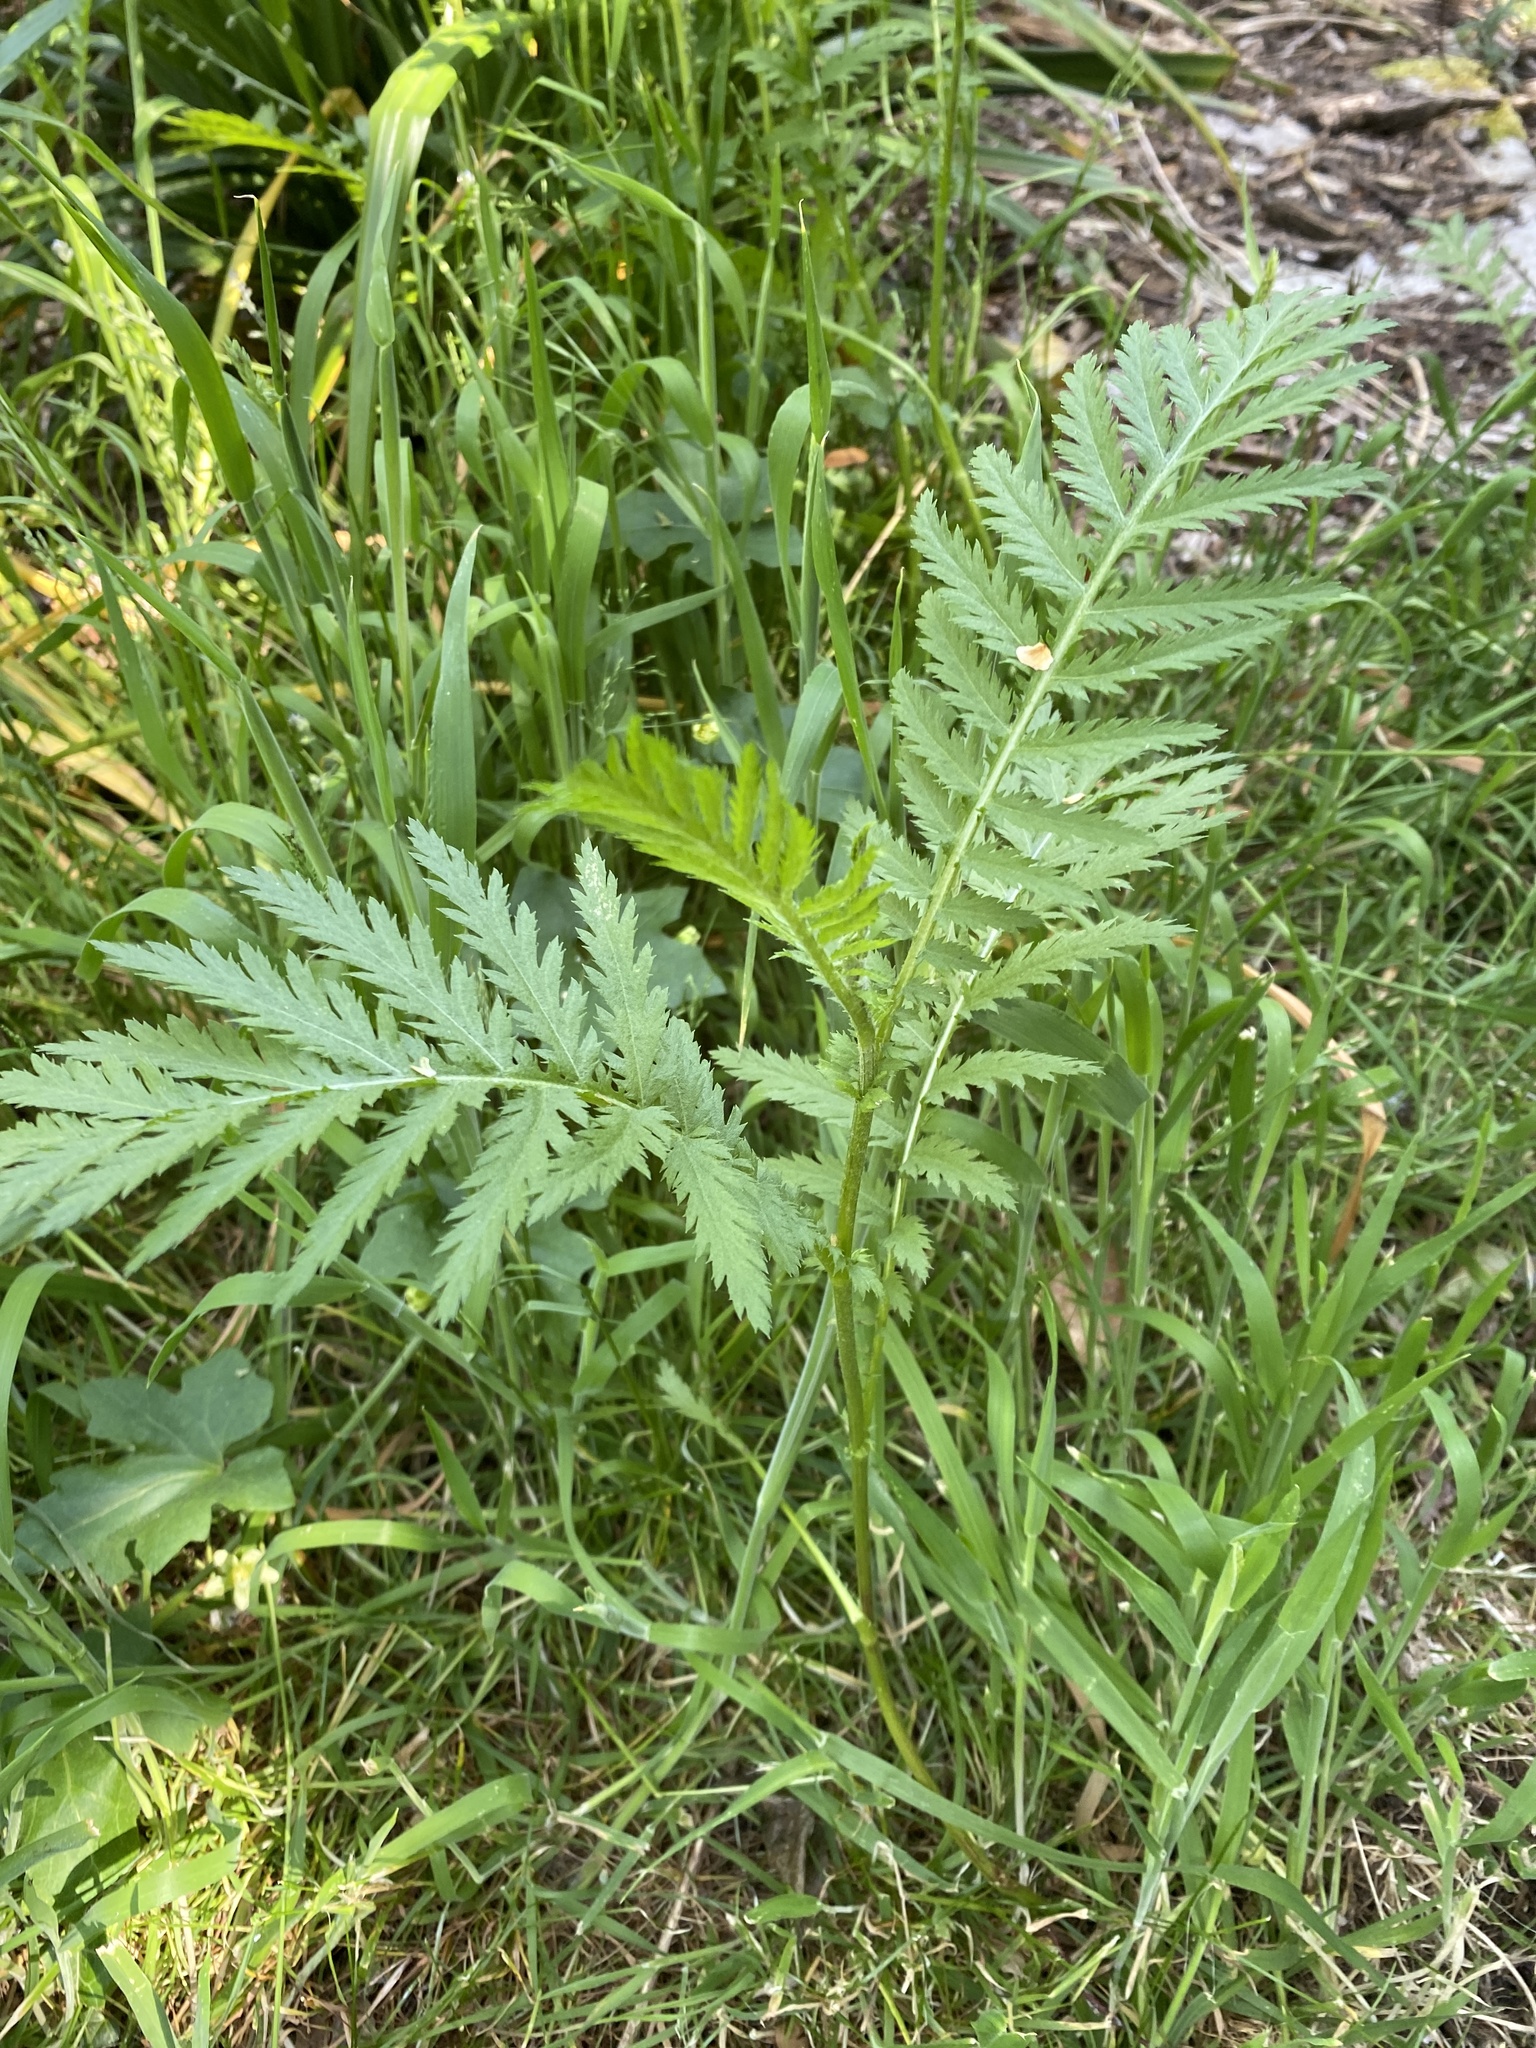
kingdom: Plantae
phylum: Tracheophyta
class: Magnoliopsida
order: Asterales
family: Asteraceae
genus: Tanacetum
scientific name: Tanacetum vulgare
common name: Common tansy
